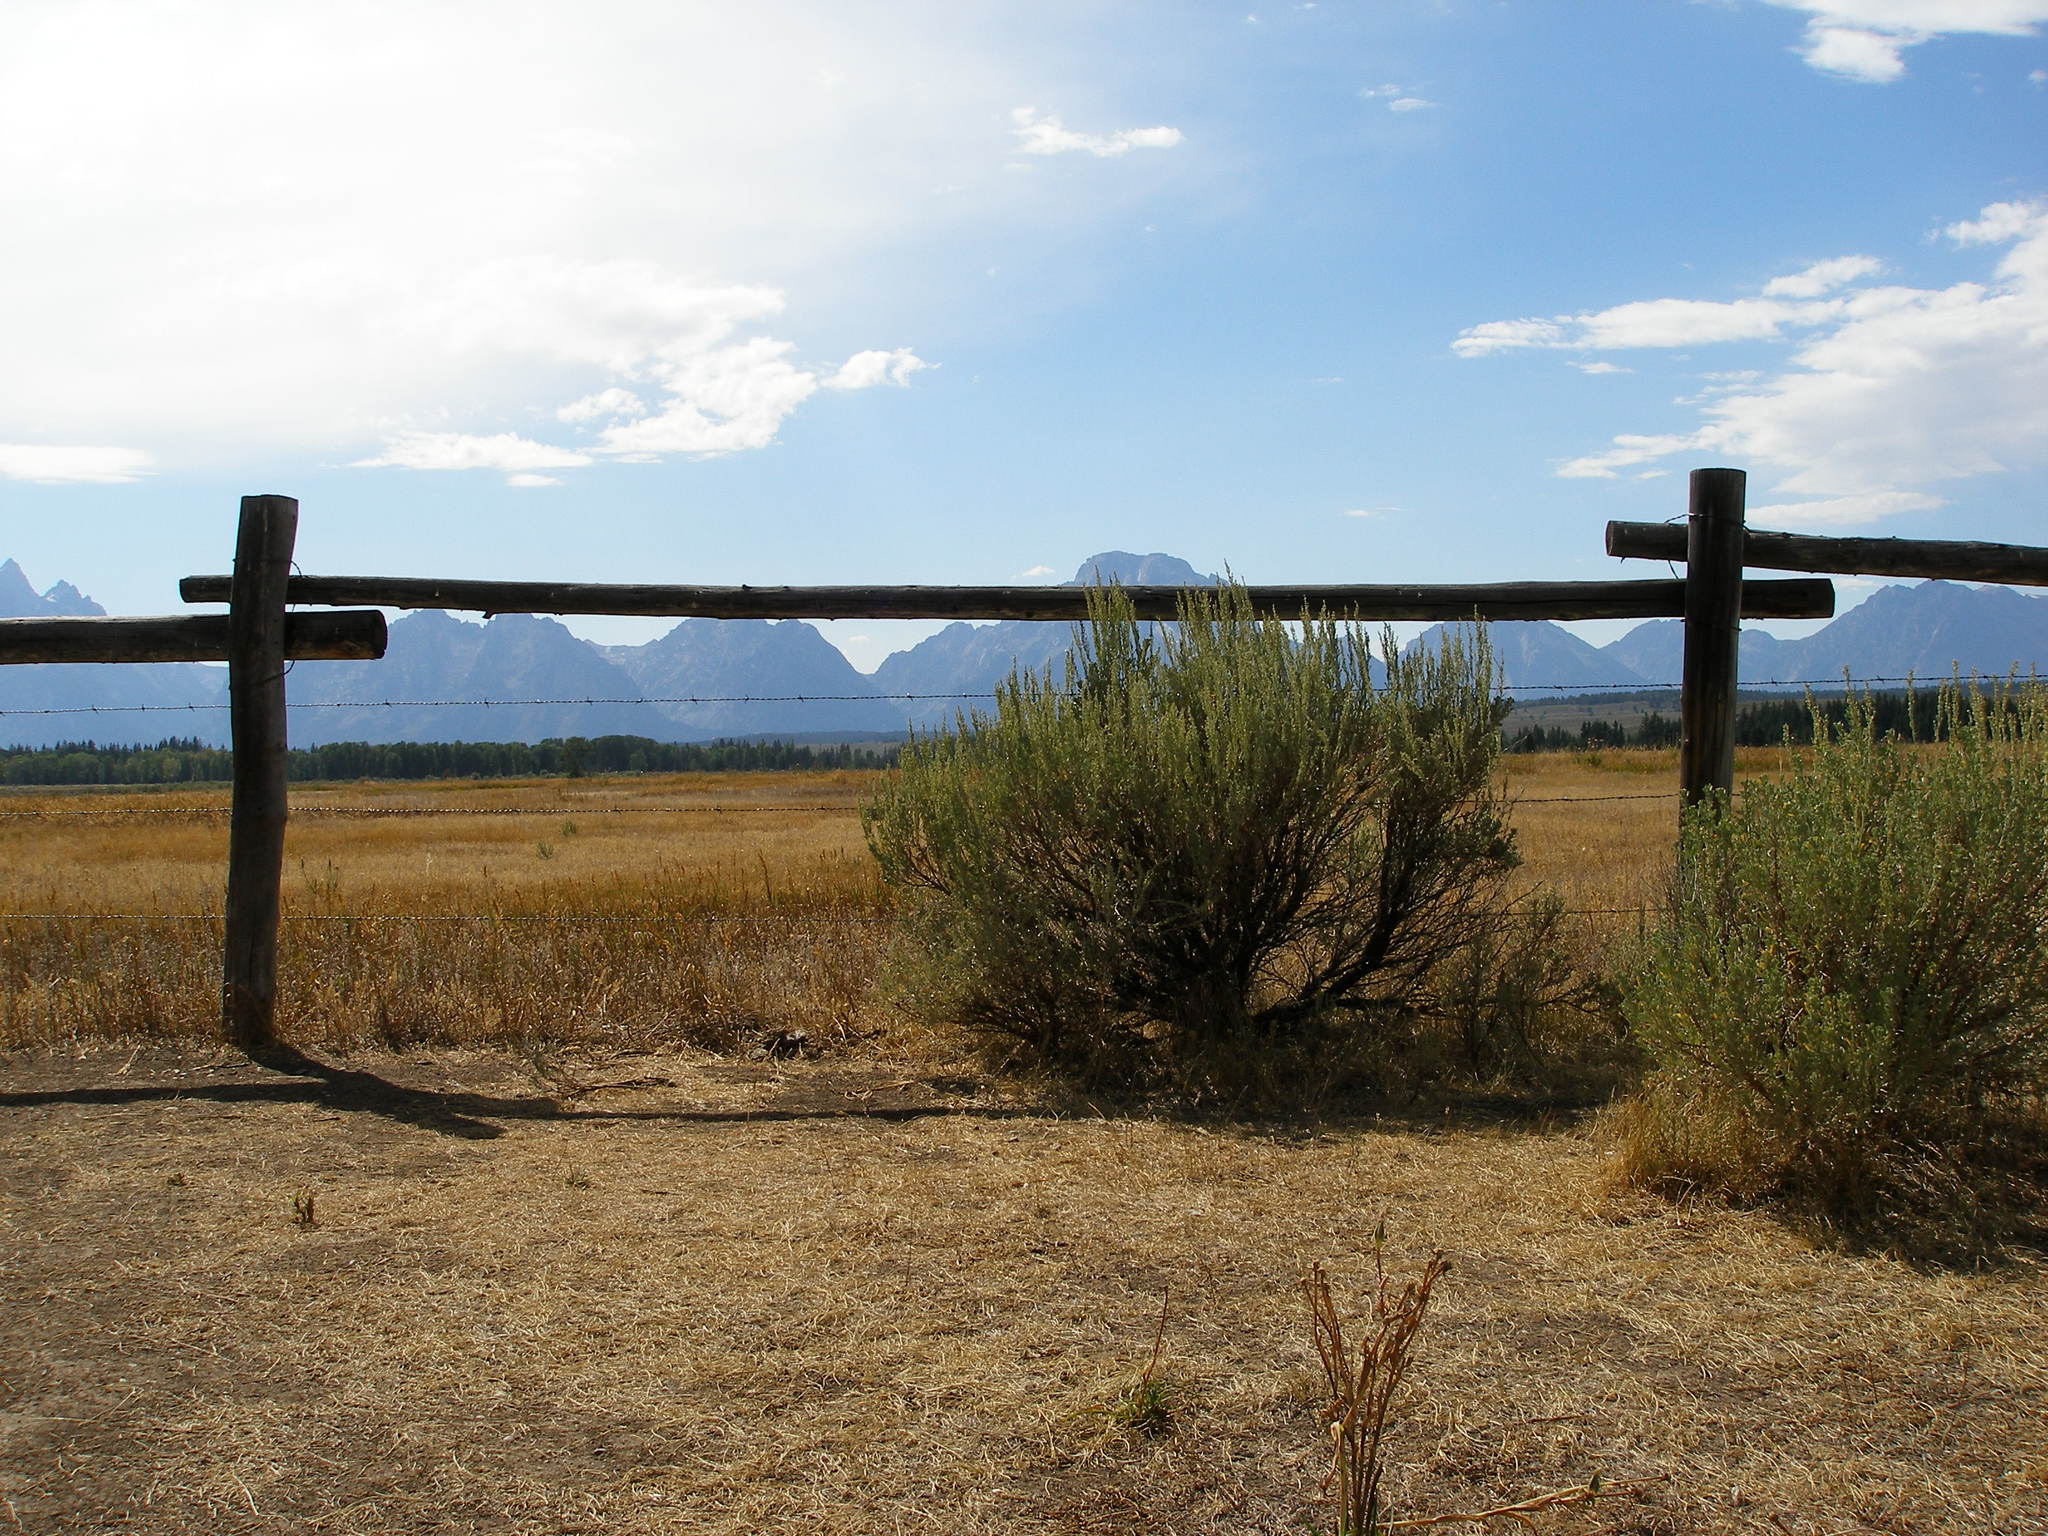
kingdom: Plantae
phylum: Tracheophyta
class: Magnoliopsida
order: Asterales
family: Asteraceae
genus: Artemisia
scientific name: Artemisia tridentata
